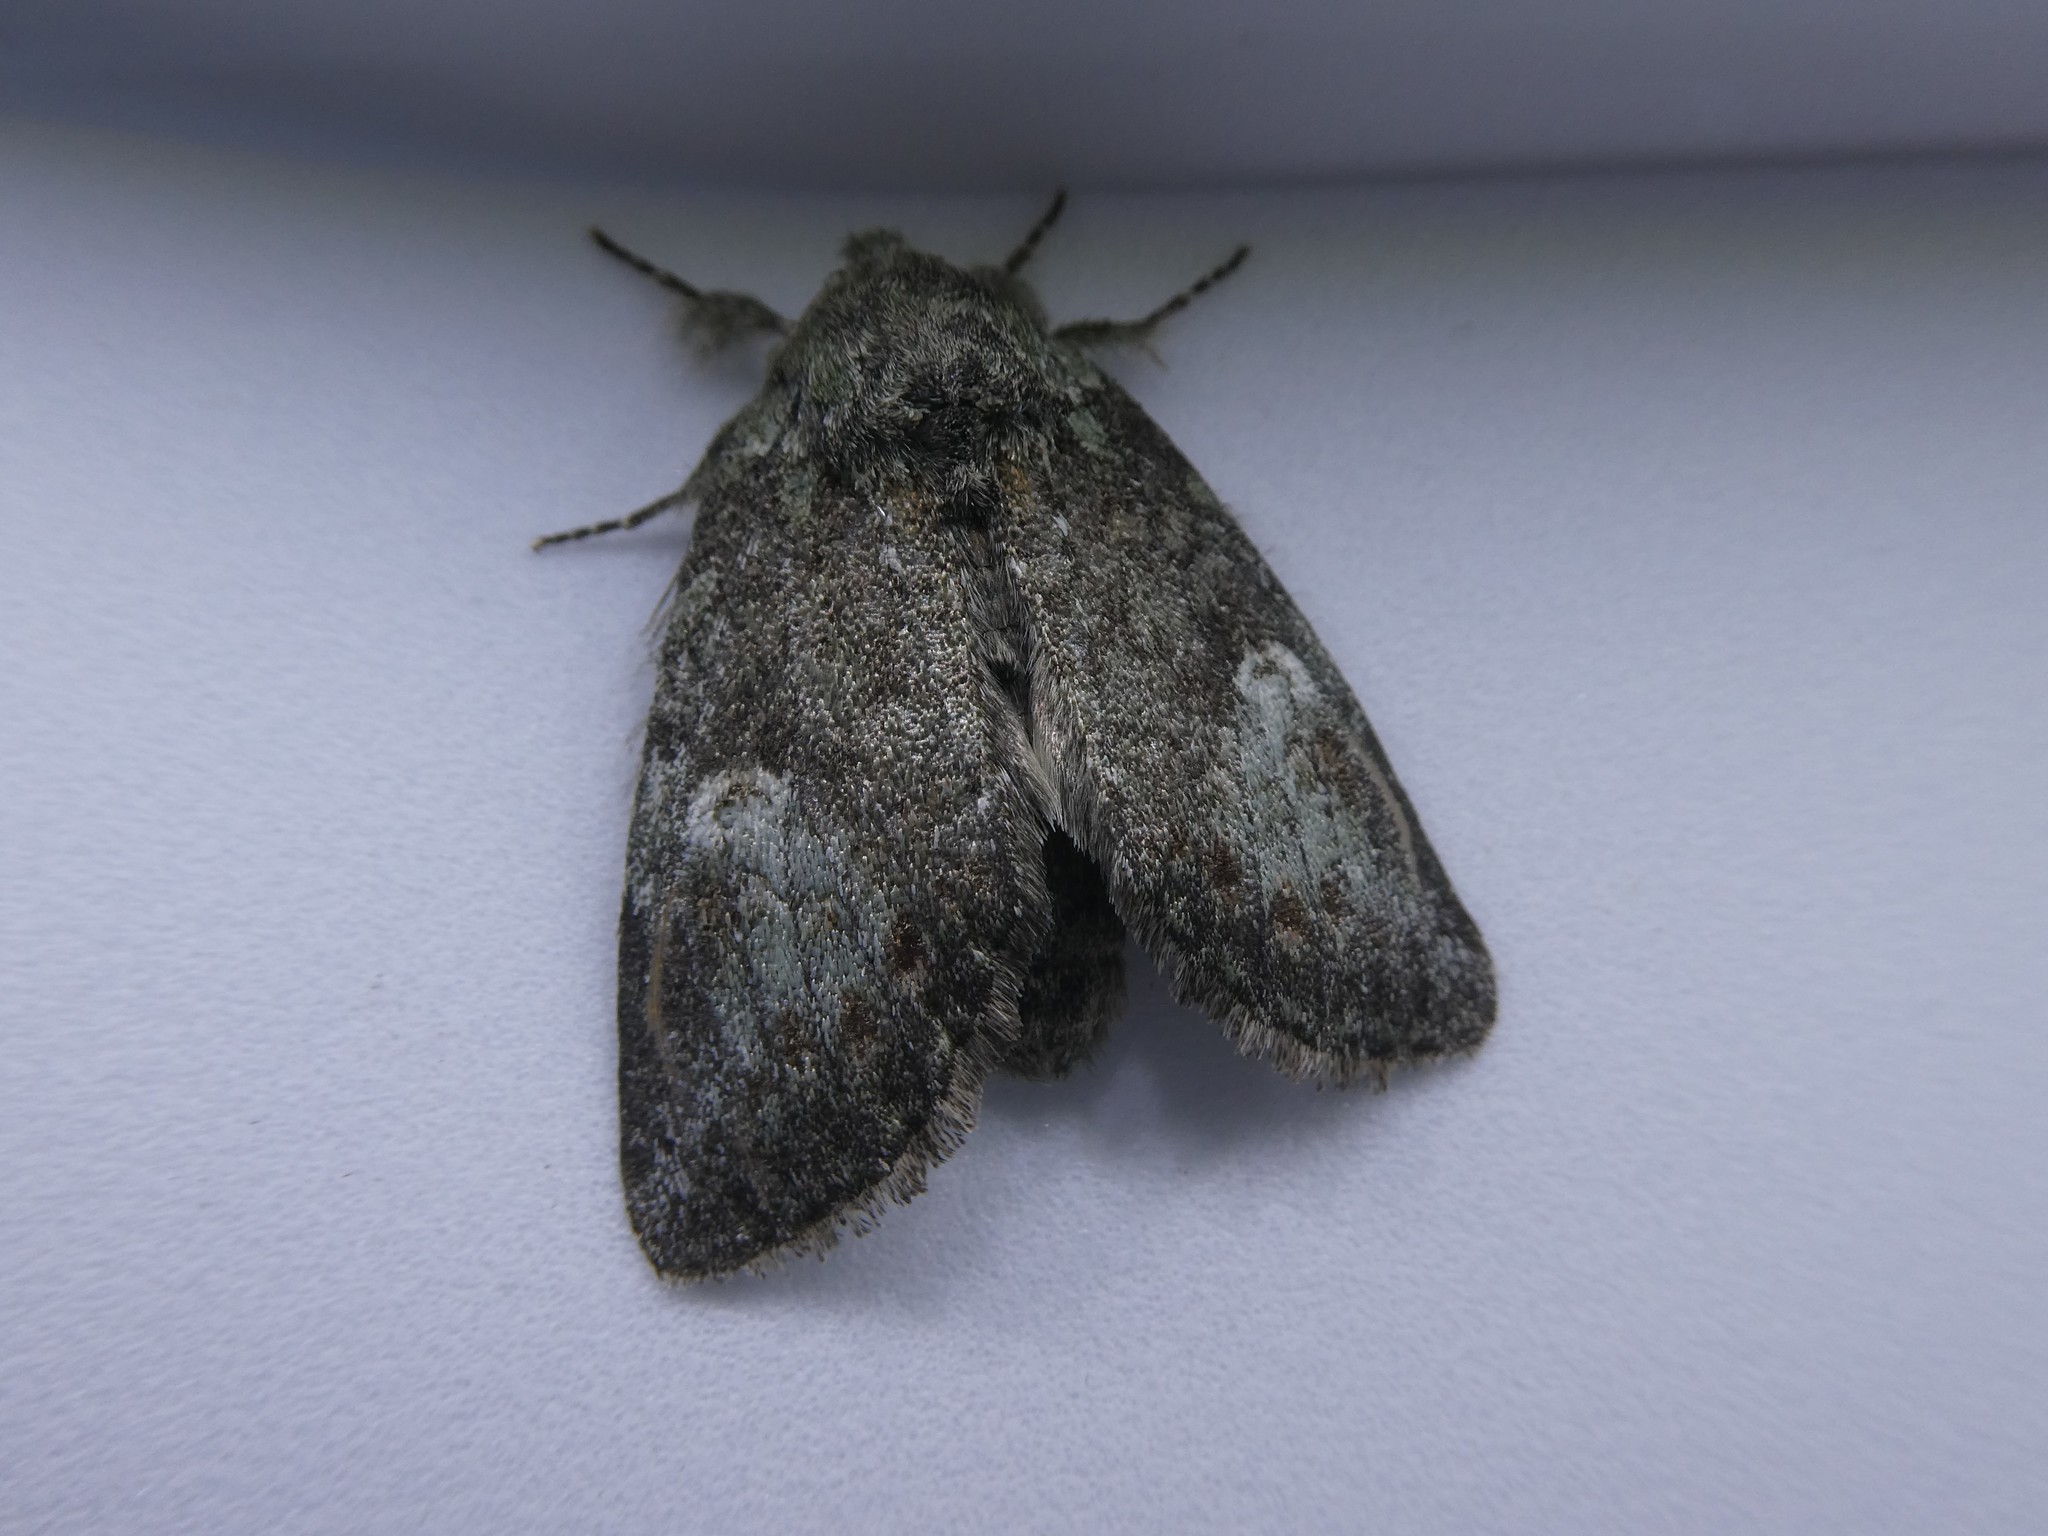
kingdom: Animalia
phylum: Arthropoda
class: Insecta
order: Lepidoptera
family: Notodontidae
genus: Disphragis
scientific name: Disphragis Cecrita guttivitta
